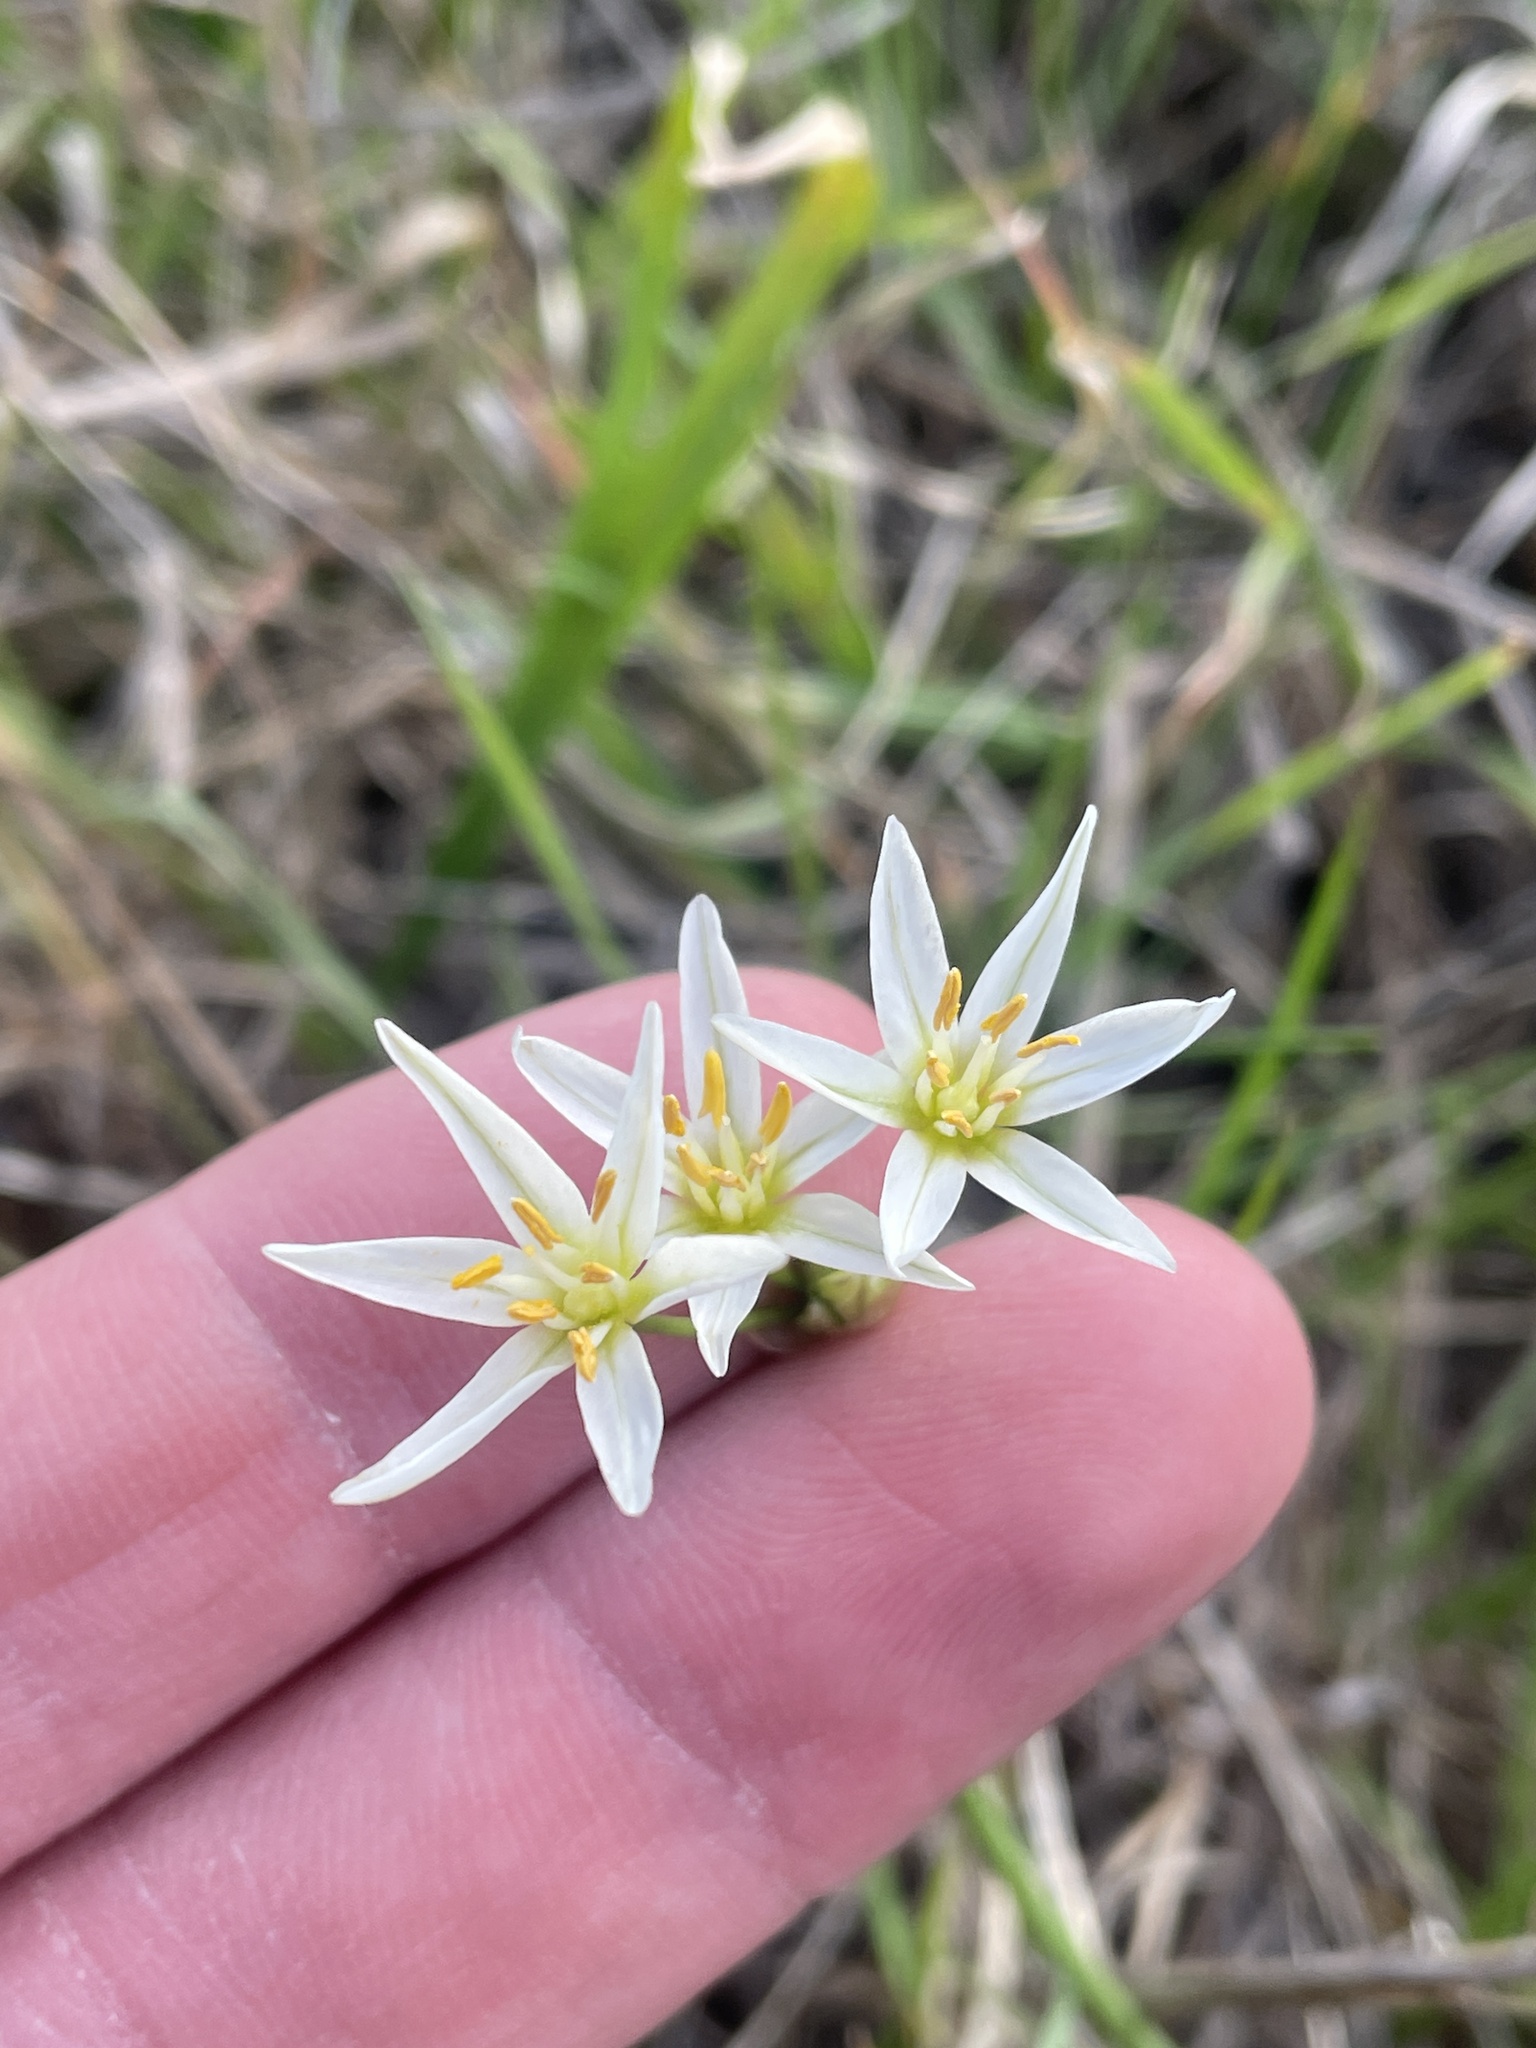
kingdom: Plantae
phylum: Tracheophyta
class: Liliopsida
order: Asparagales
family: Amaryllidaceae
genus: Nothoscordum
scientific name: Nothoscordum bivalve
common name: Crow-poison
